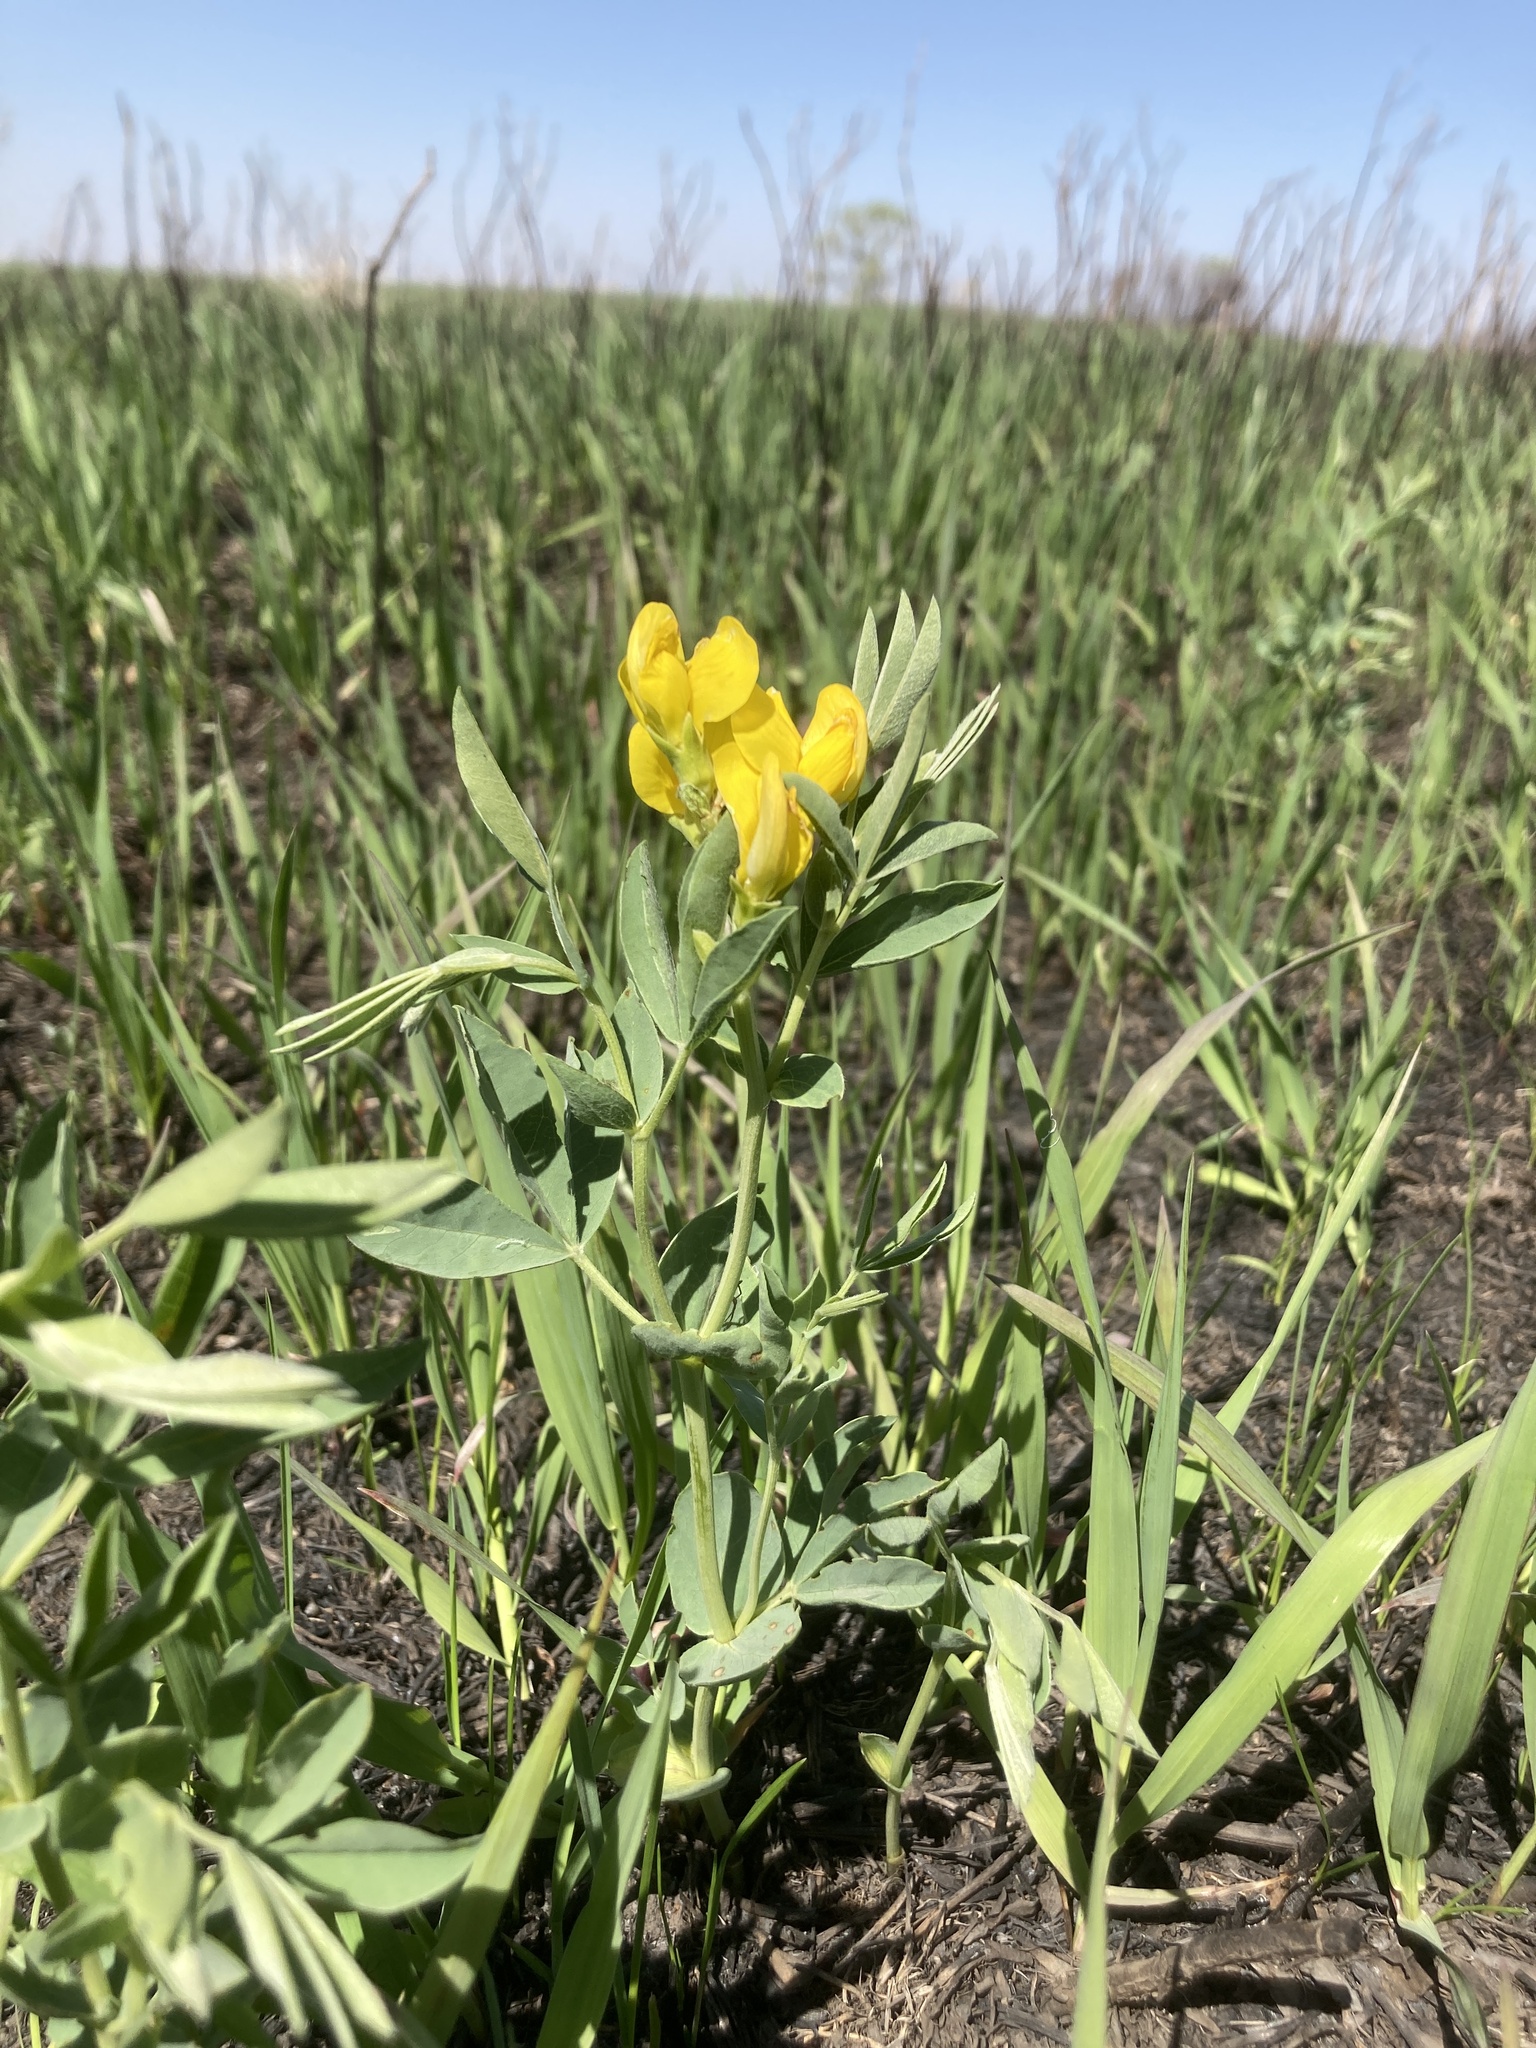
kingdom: Plantae
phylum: Tracheophyta
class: Magnoliopsida
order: Fabales
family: Fabaceae
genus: Thermopsis
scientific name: Thermopsis rhombifolia
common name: Circle-pod-pea
